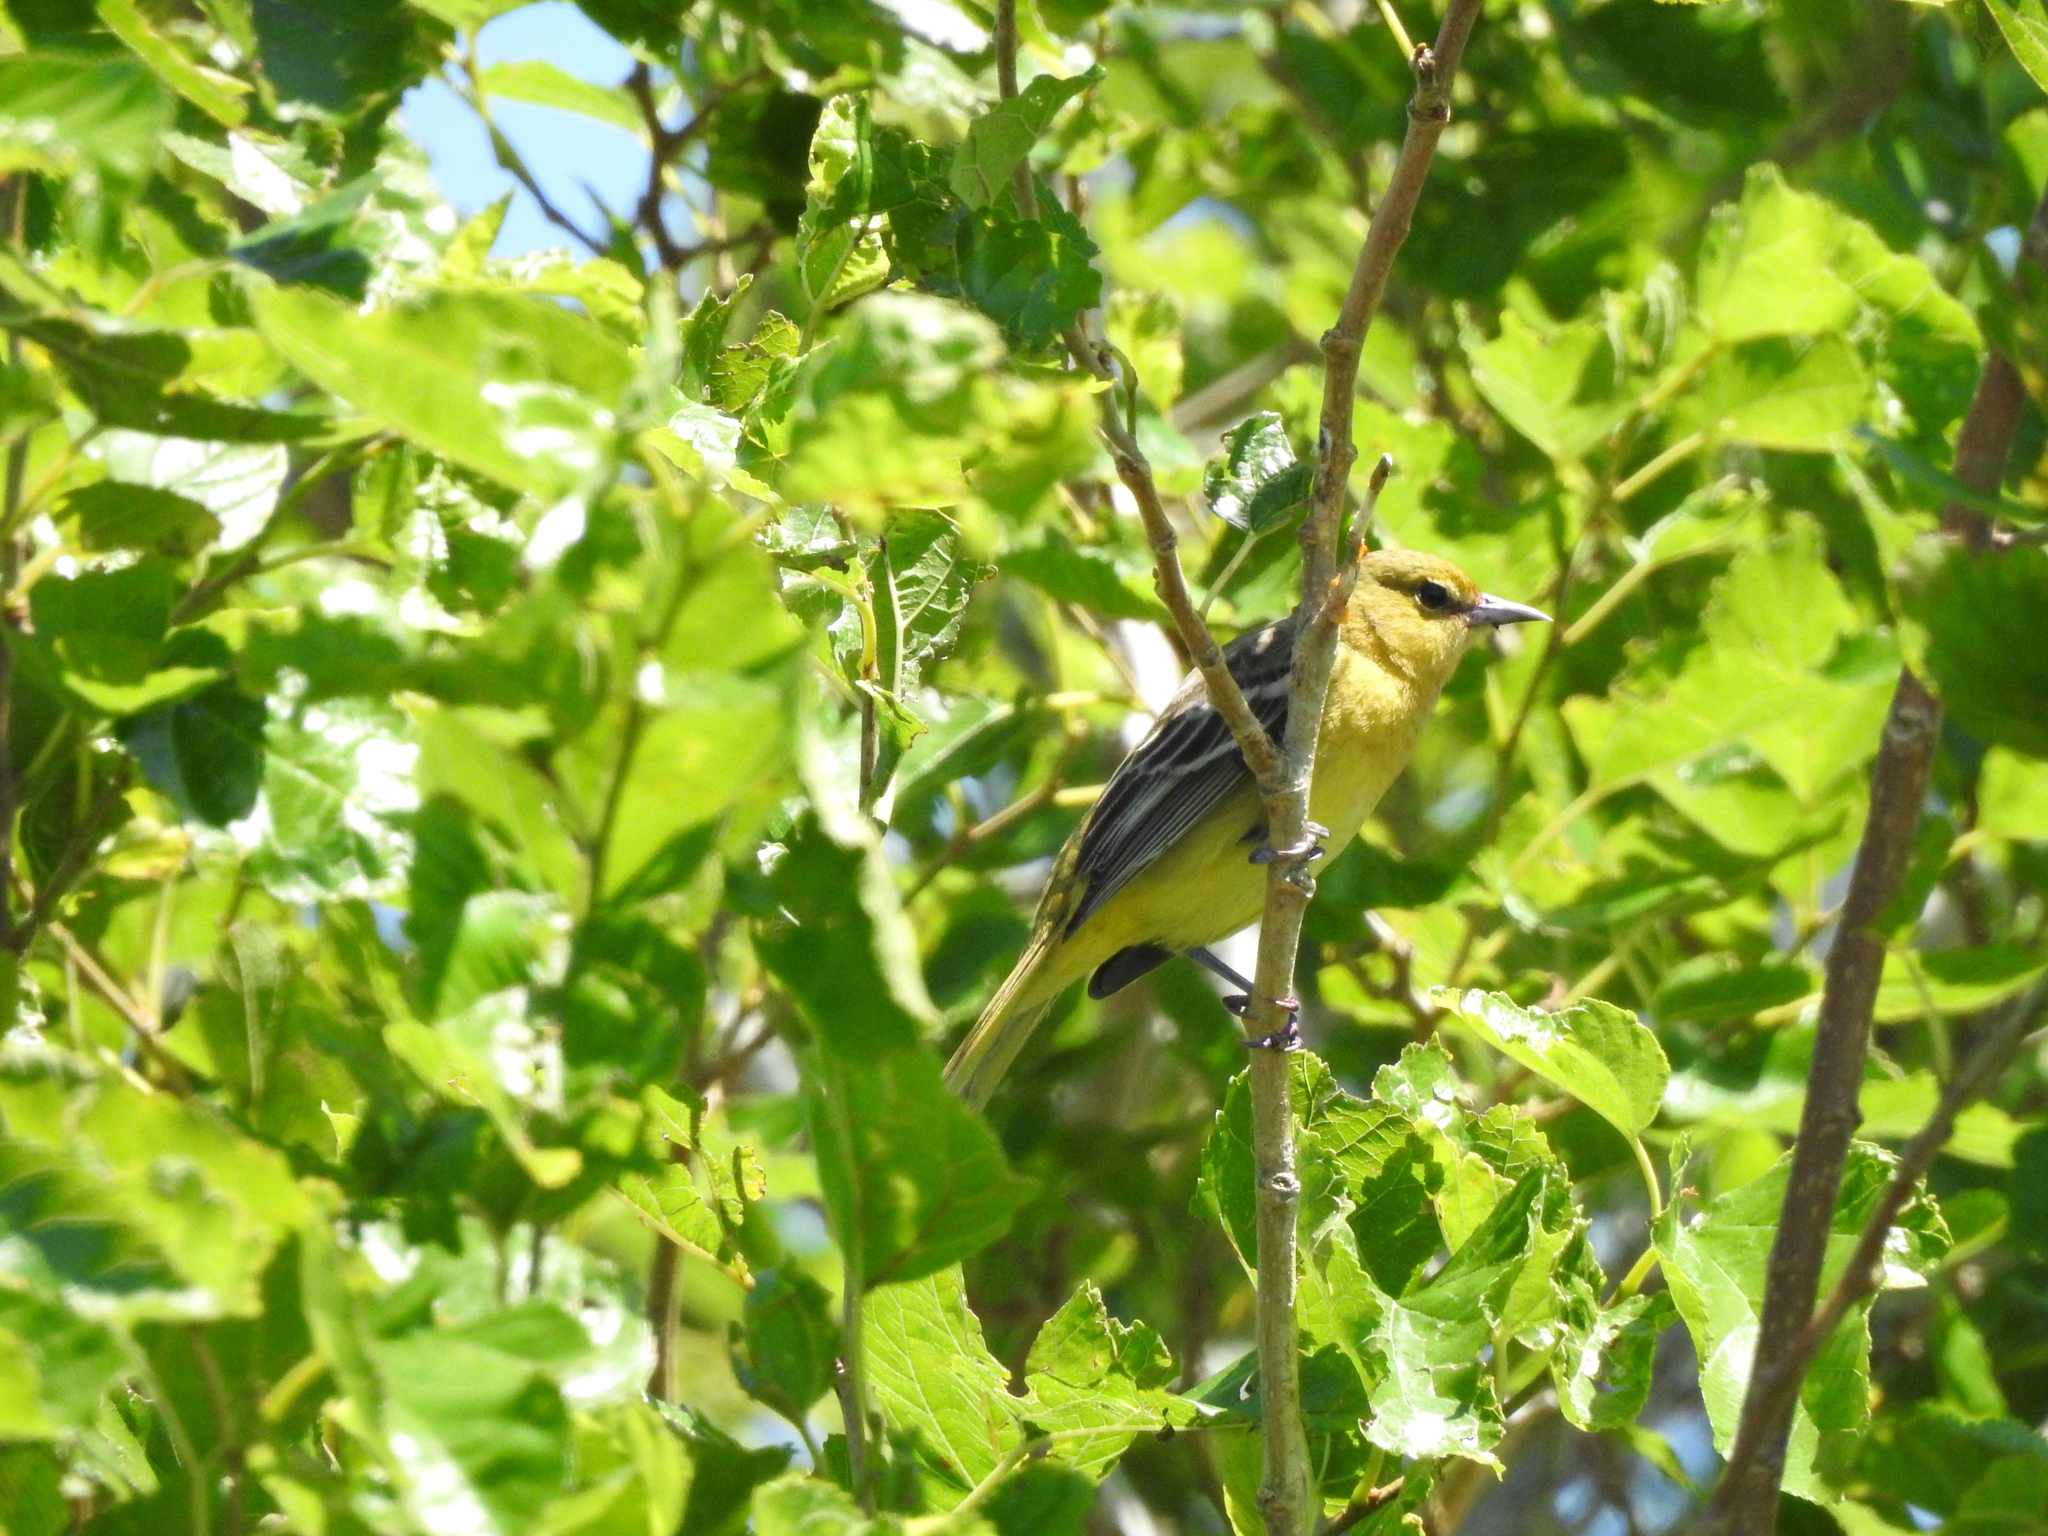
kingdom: Animalia
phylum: Chordata
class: Aves
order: Passeriformes
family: Icteridae
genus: Icterus
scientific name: Icterus spurius
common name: Orchard oriole
